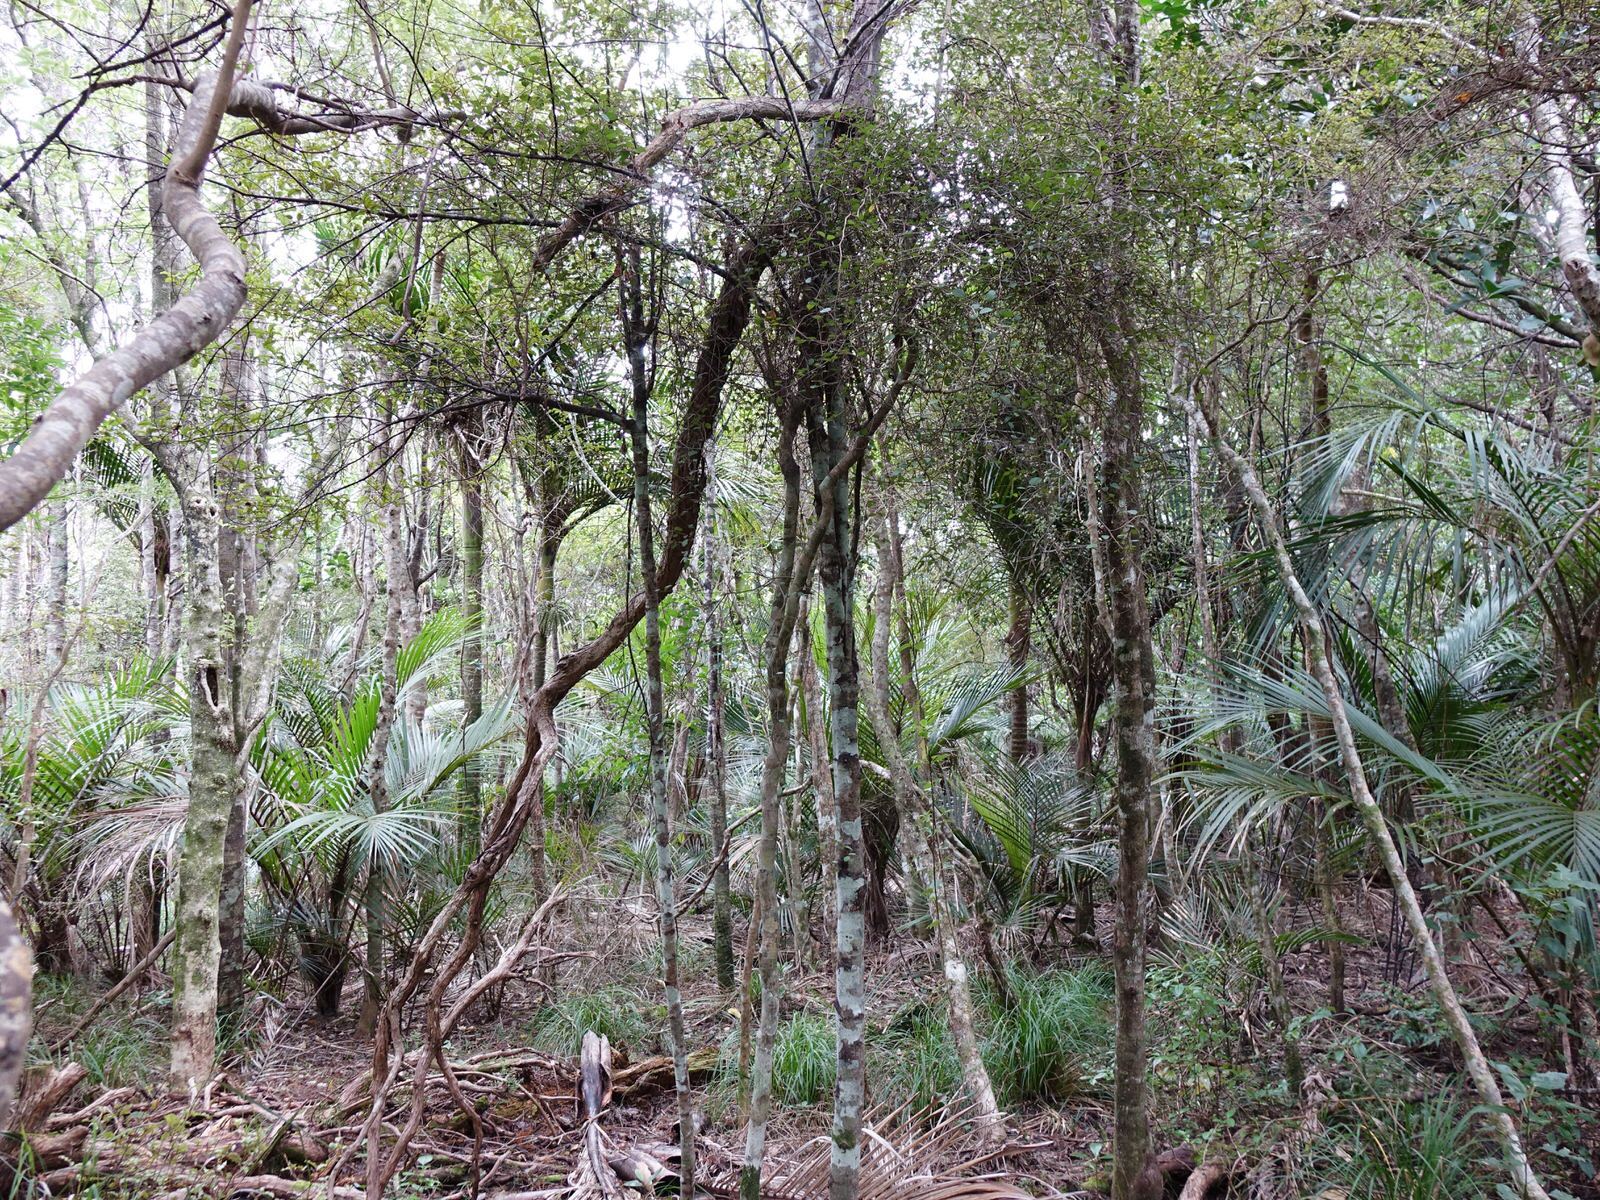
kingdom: Plantae
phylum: Tracheophyta
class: Magnoliopsida
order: Rosales
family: Moraceae
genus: Paratrophis
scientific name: Paratrophis microphylla
